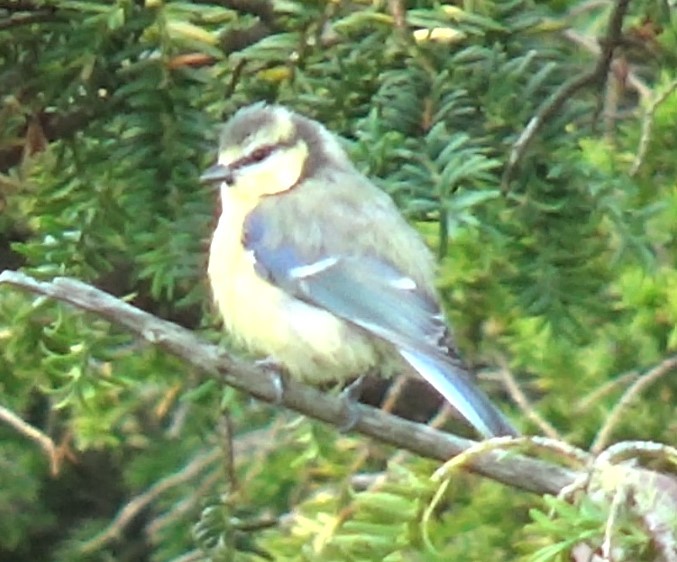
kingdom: Animalia
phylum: Chordata
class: Aves
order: Passeriformes
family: Paridae
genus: Cyanistes
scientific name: Cyanistes caeruleus
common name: Eurasian blue tit
